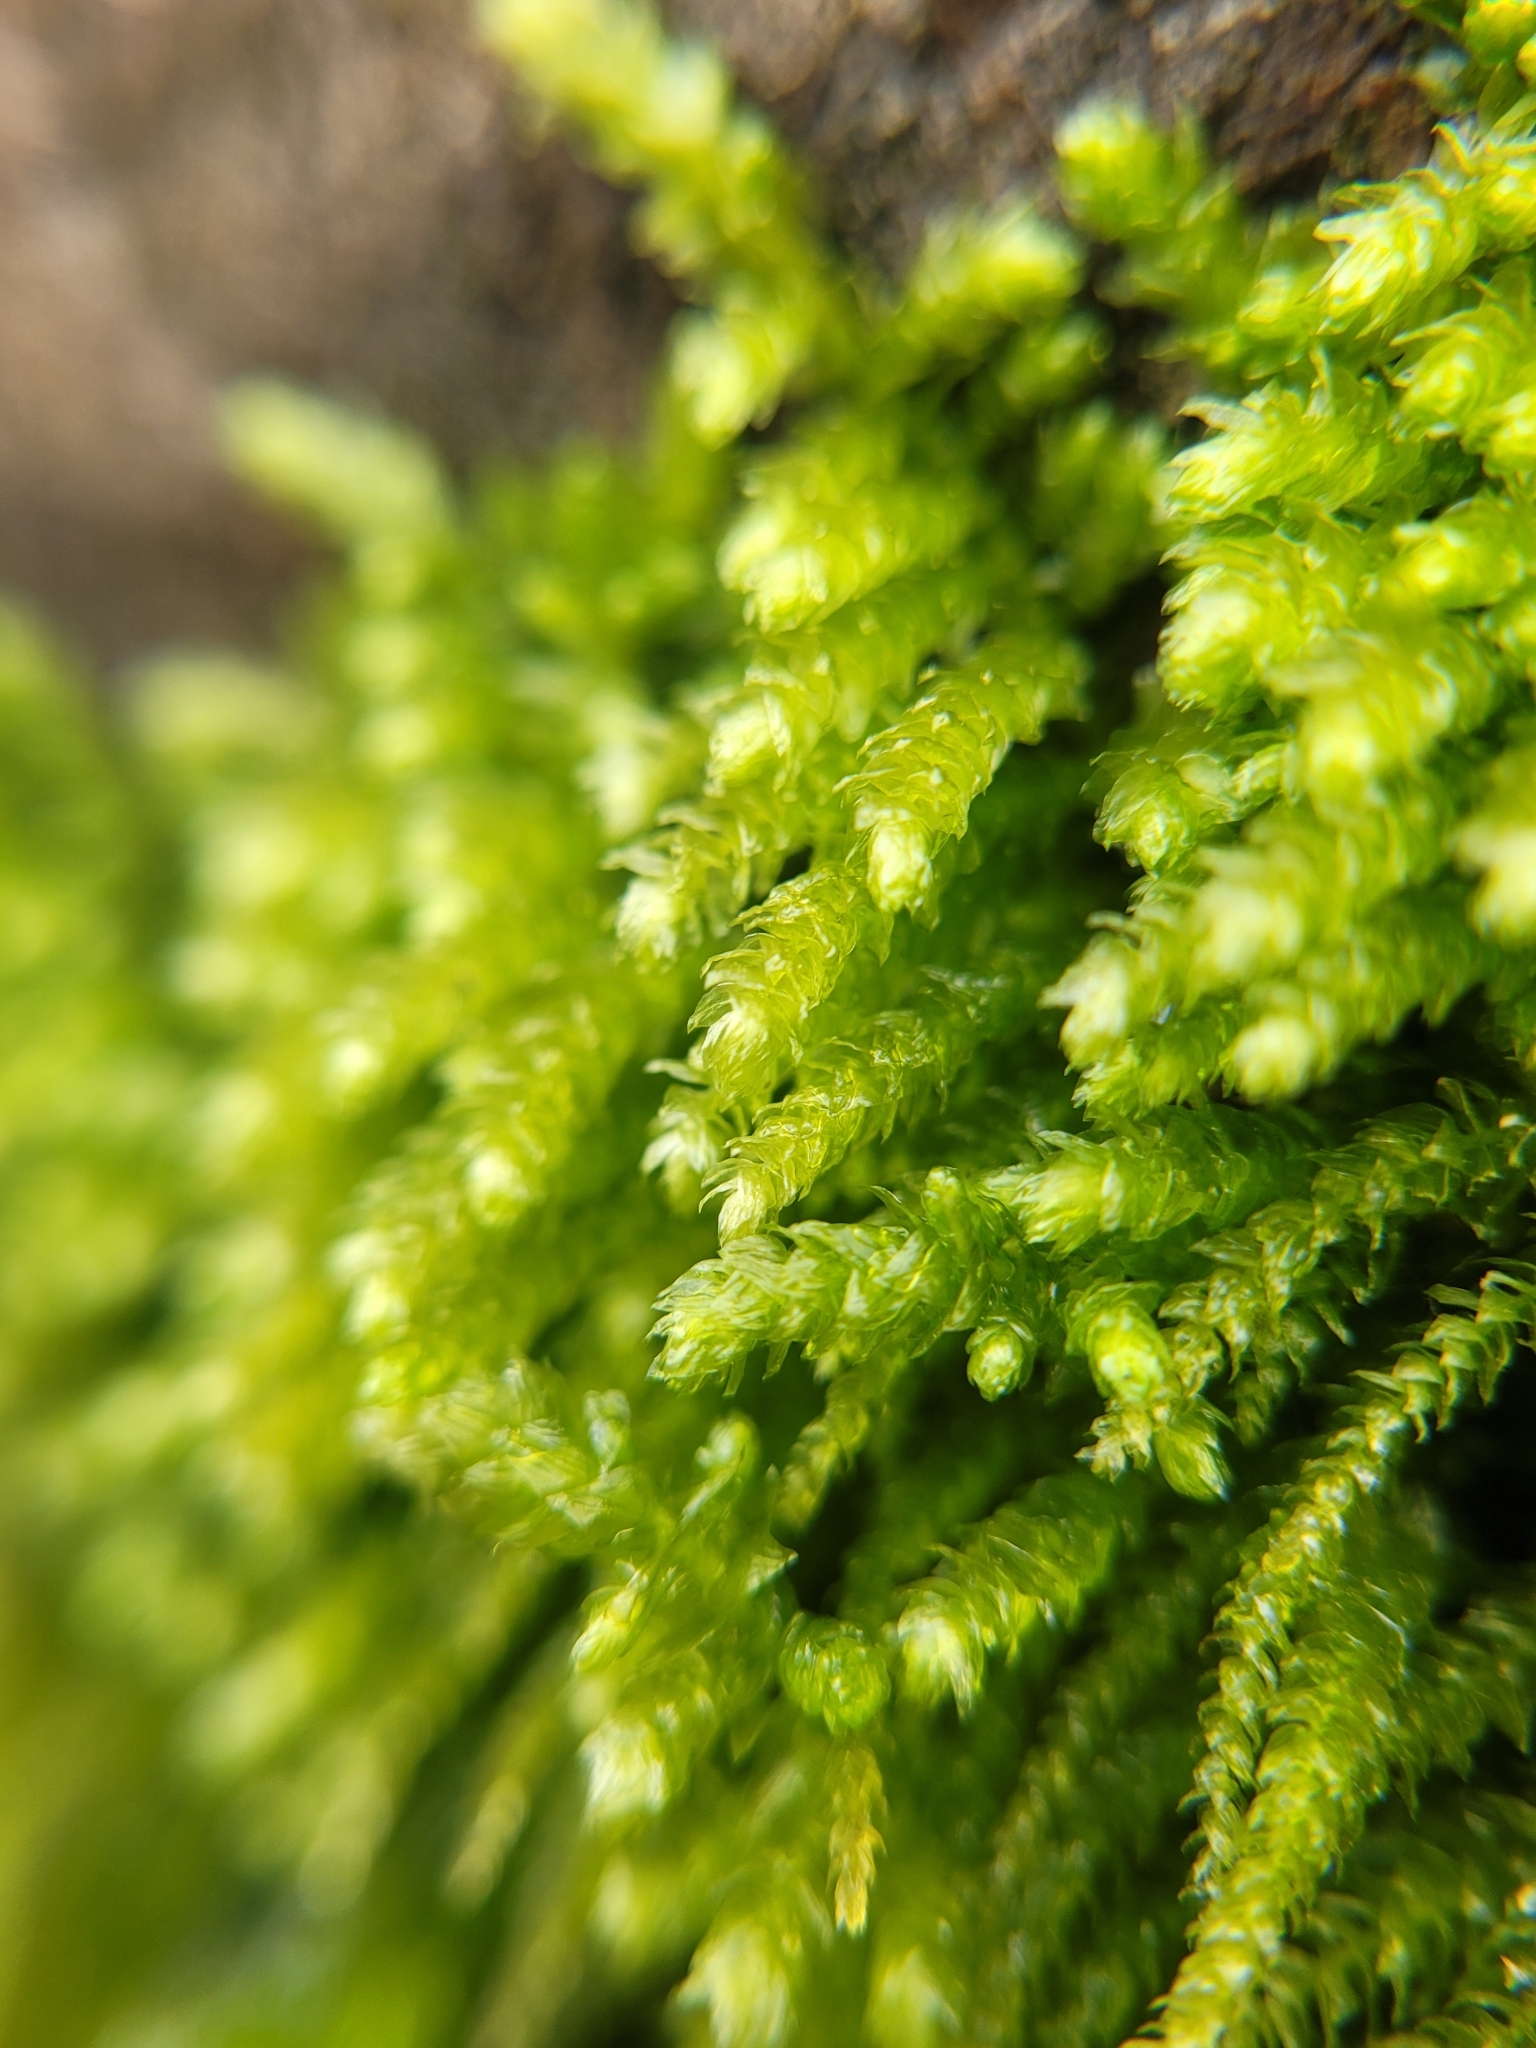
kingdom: Plantae
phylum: Bryophyta
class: Bryopsida
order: Hypnales
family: Brachytheciaceae
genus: Eurhynchium
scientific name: Eurhynchium angustirete
